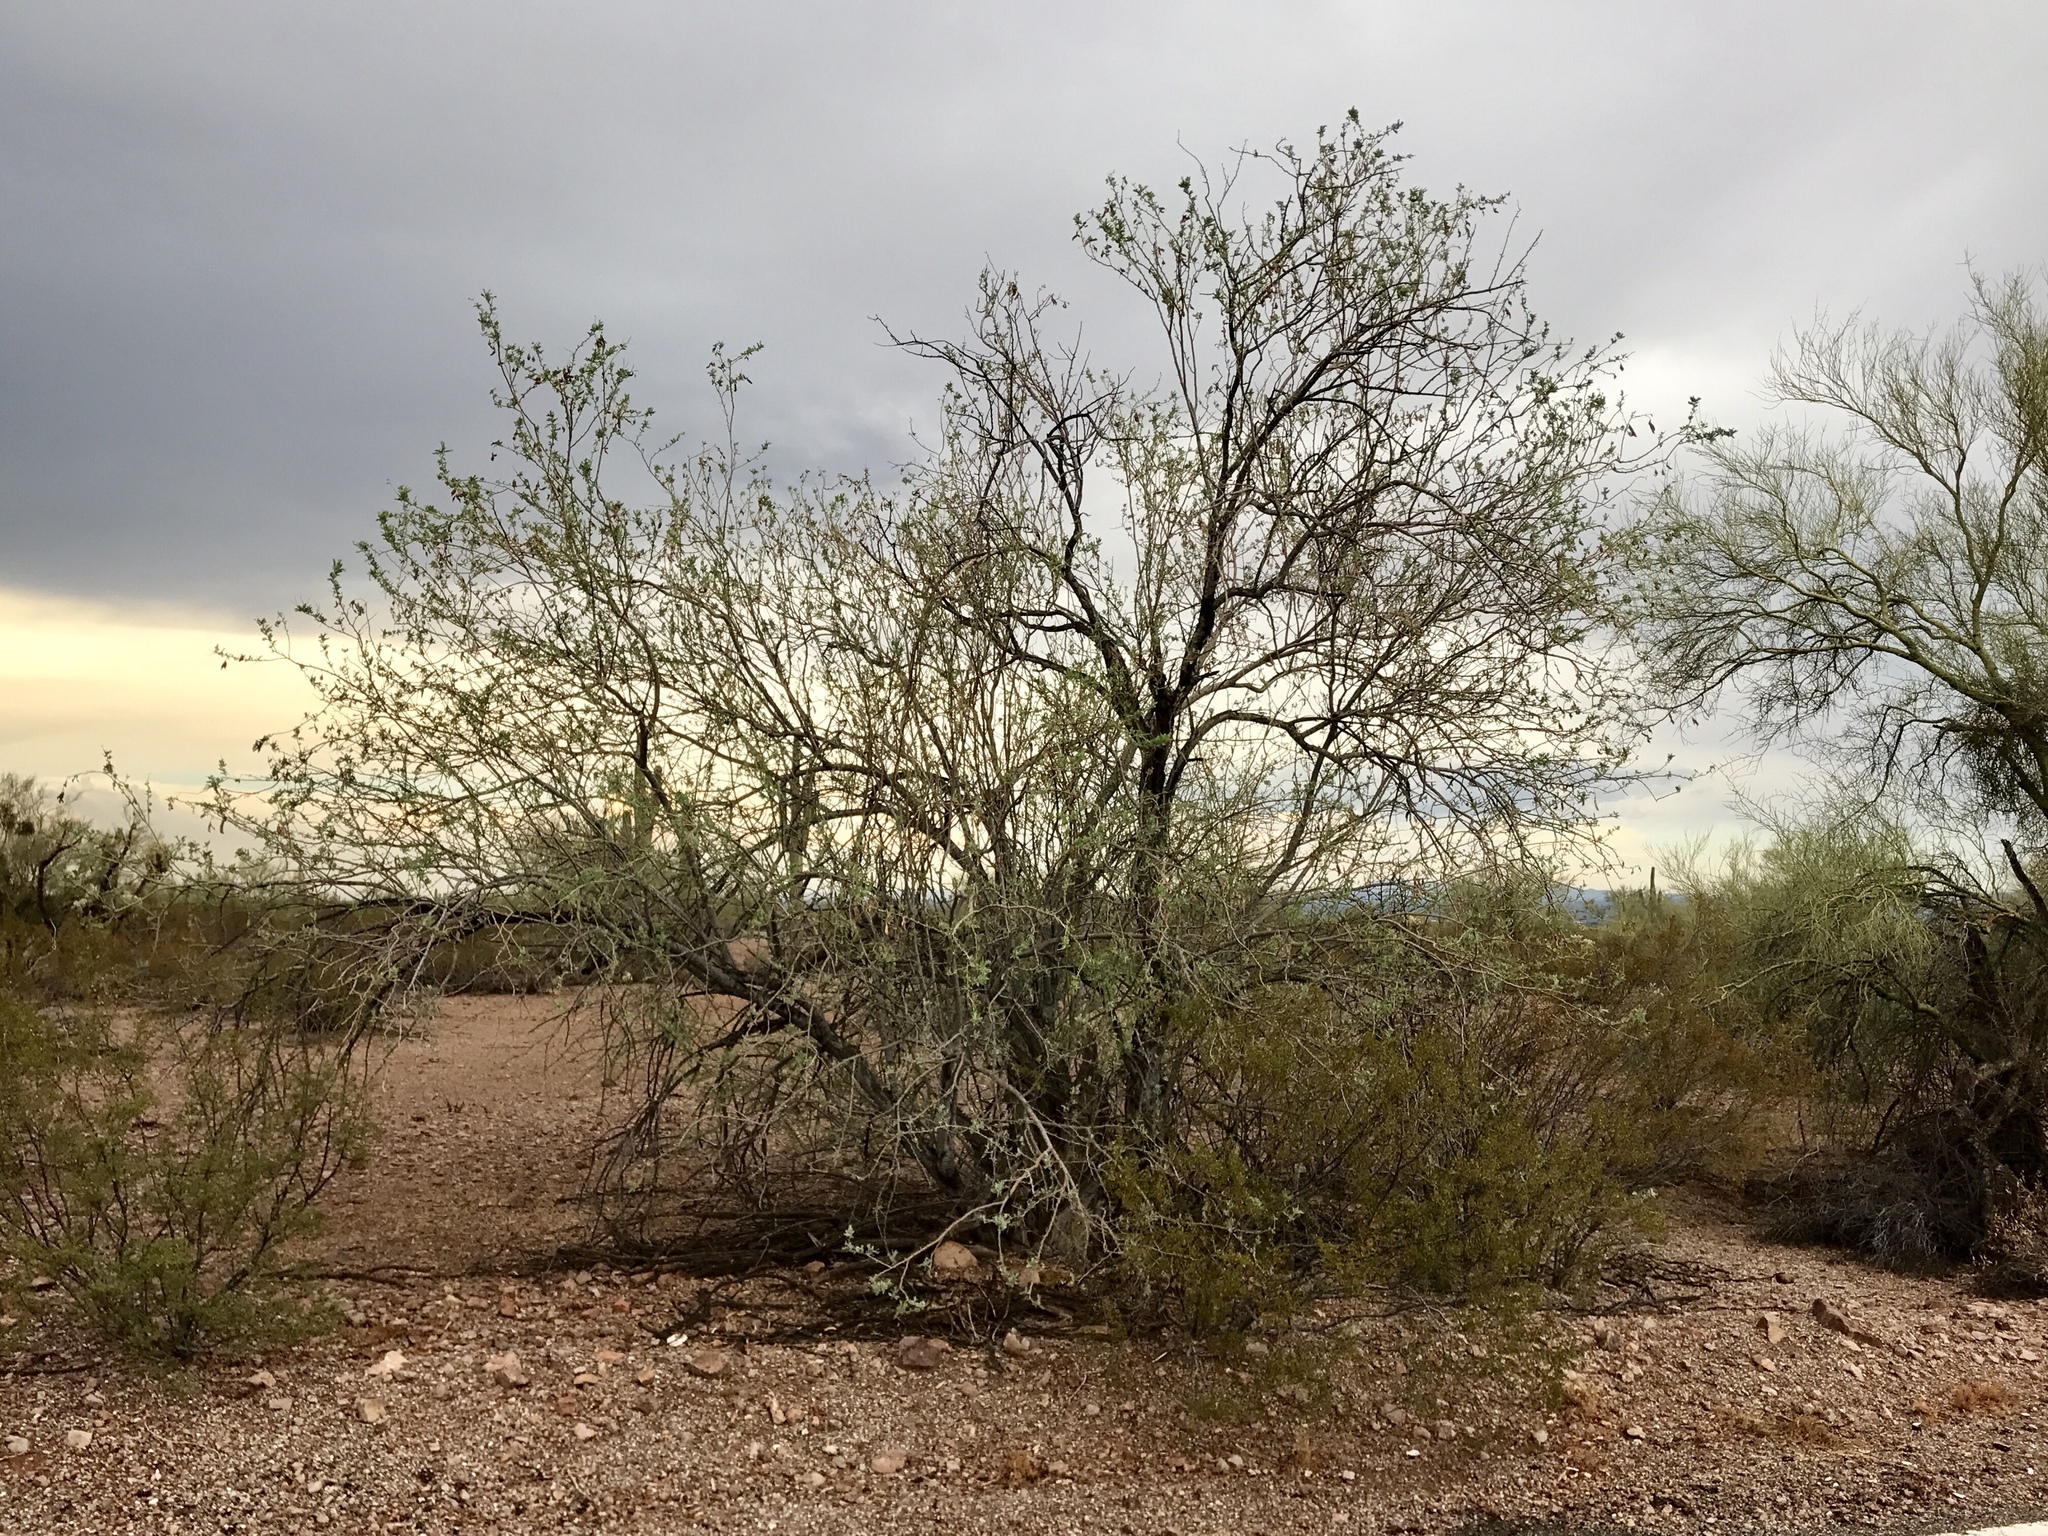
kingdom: Plantae
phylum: Tracheophyta
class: Magnoliopsida
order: Fabales
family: Fabaceae
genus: Olneya
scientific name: Olneya tesota
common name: Desert ironwood
